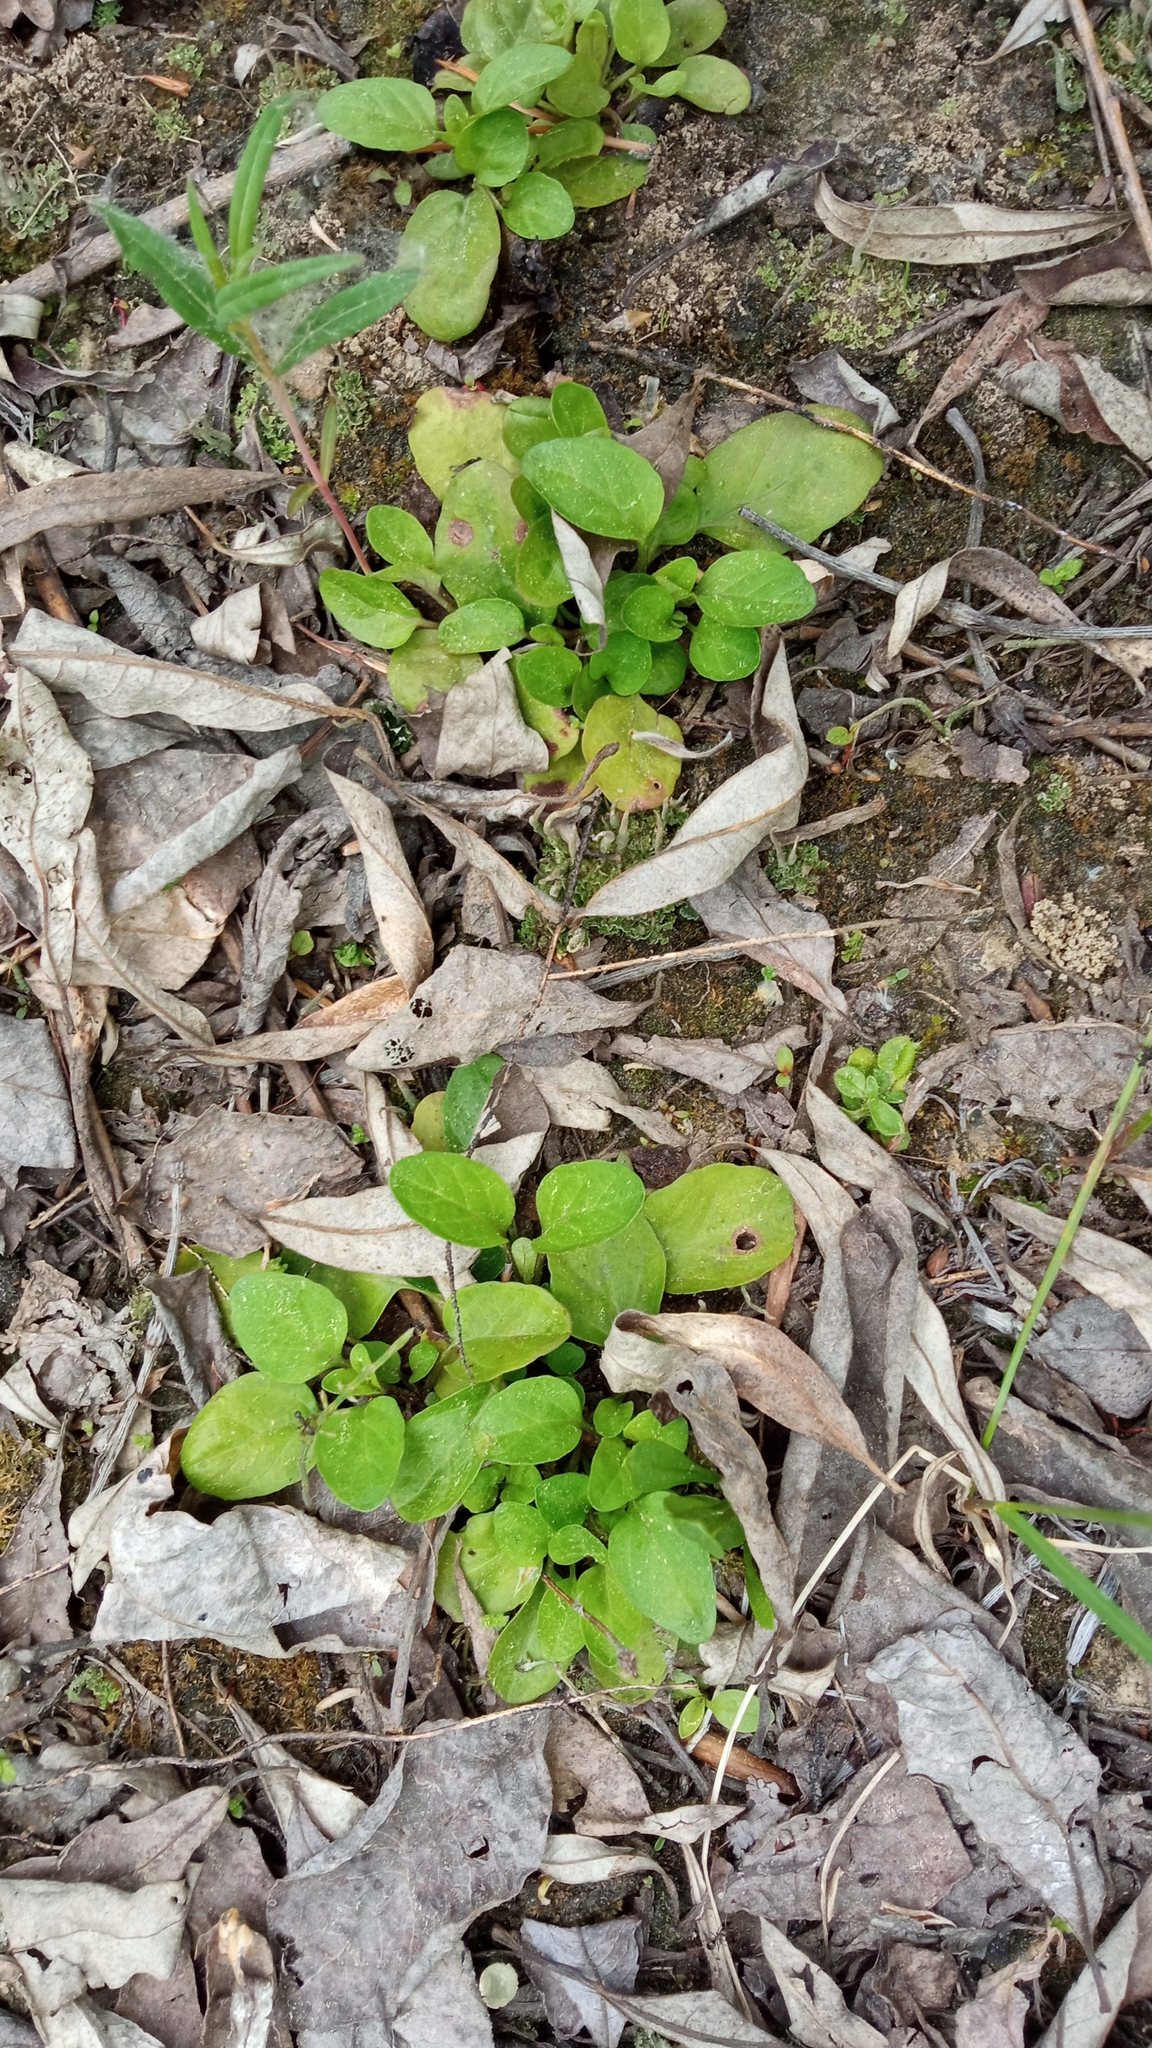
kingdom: Plantae
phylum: Tracheophyta
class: Magnoliopsida
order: Lamiales
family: Lamiaceae
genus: Prunella
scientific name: Prunella vulgaris
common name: Heal-all
